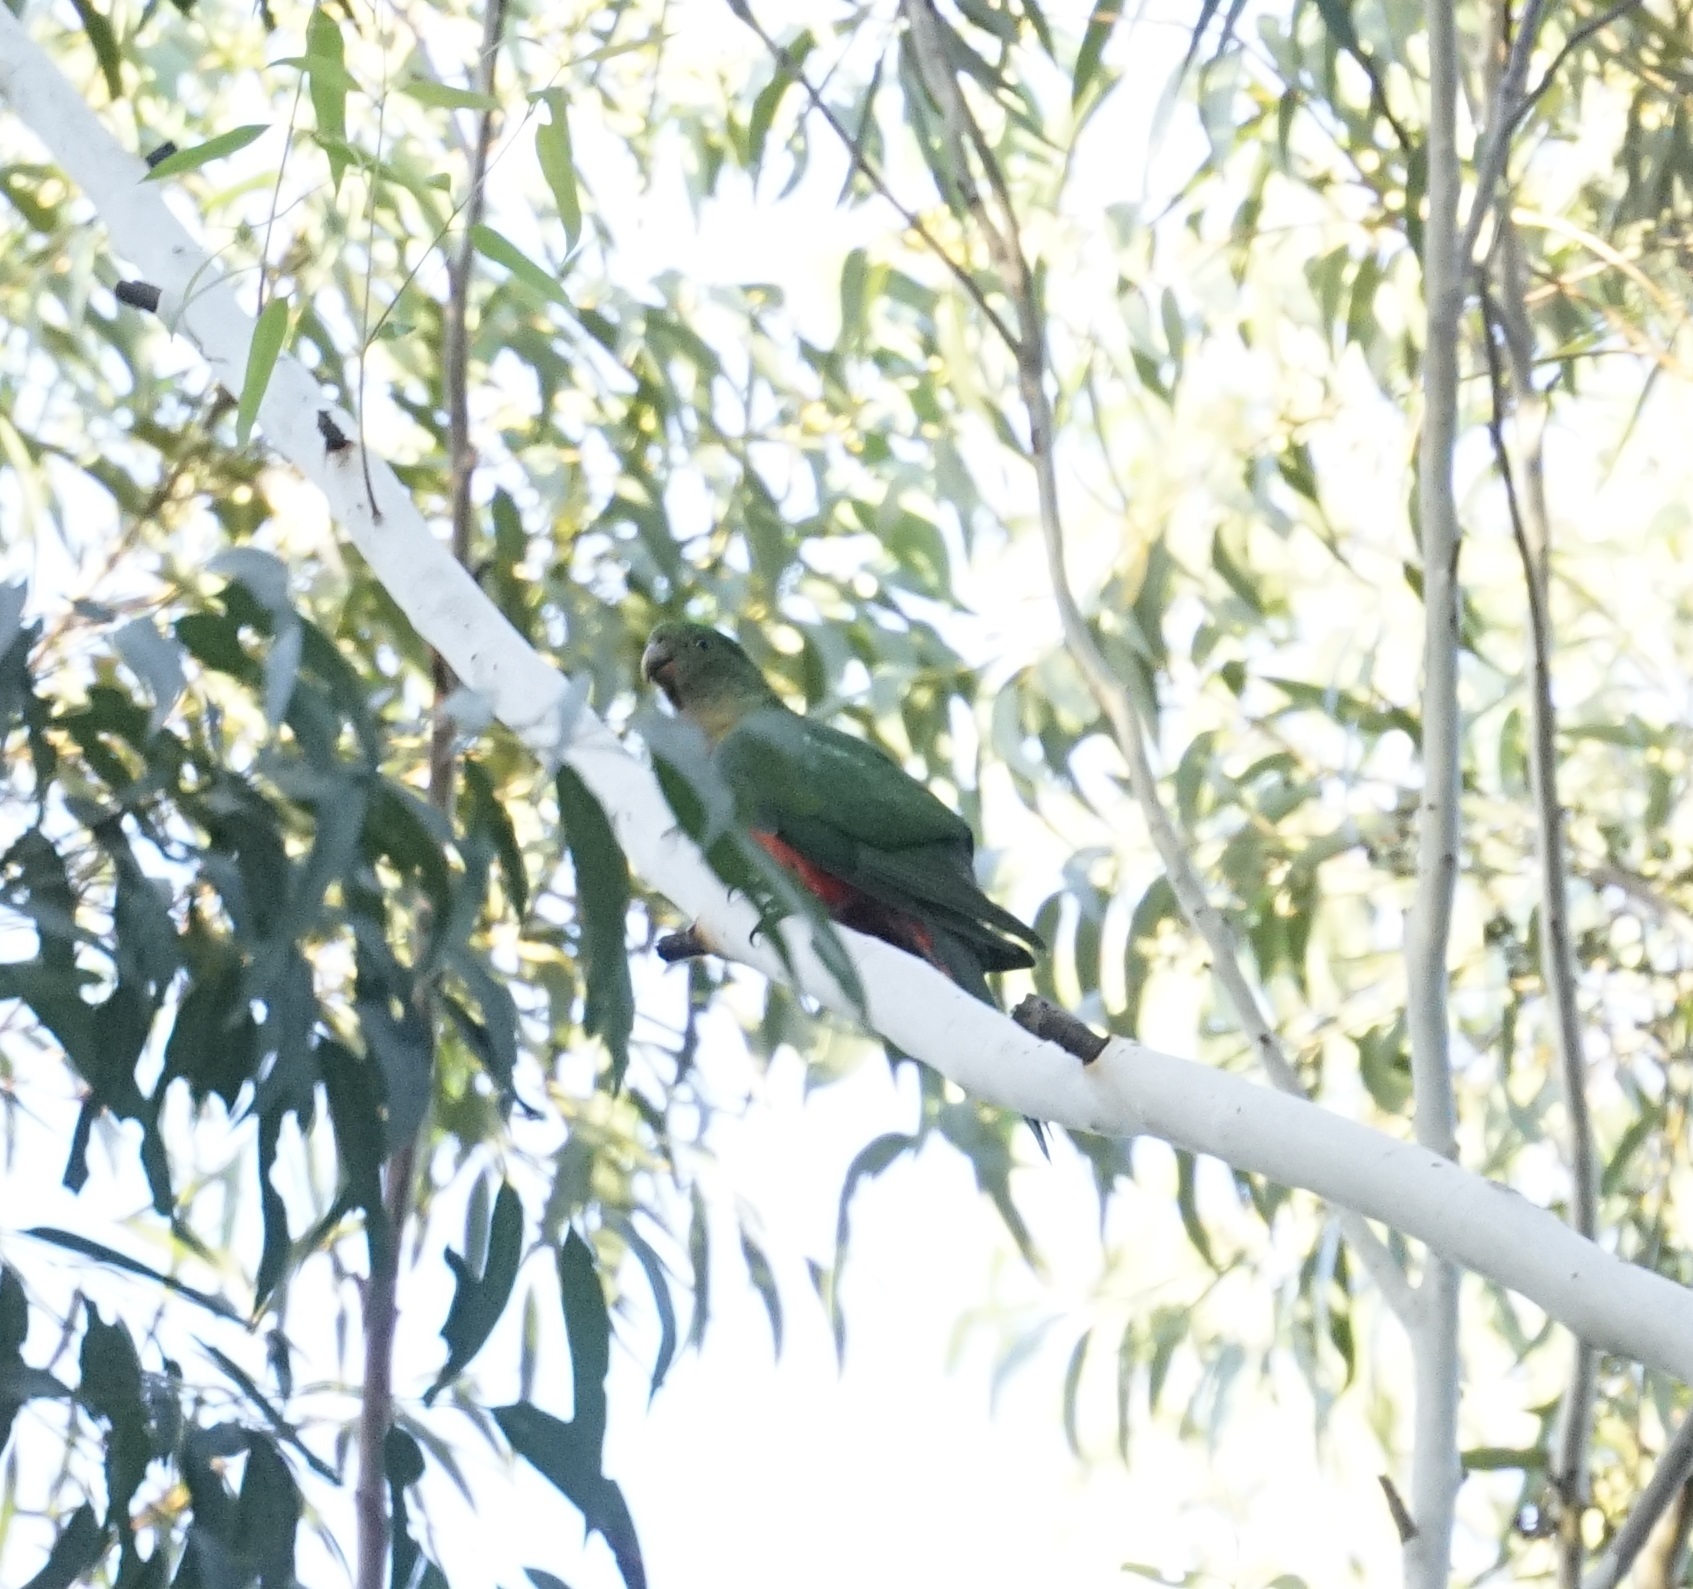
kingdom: Animalia
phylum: Chordata
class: Aves
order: Psittaciformes
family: Psittacidae
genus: Alisterus
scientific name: Alisterus scapularis
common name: Australian king parrot
